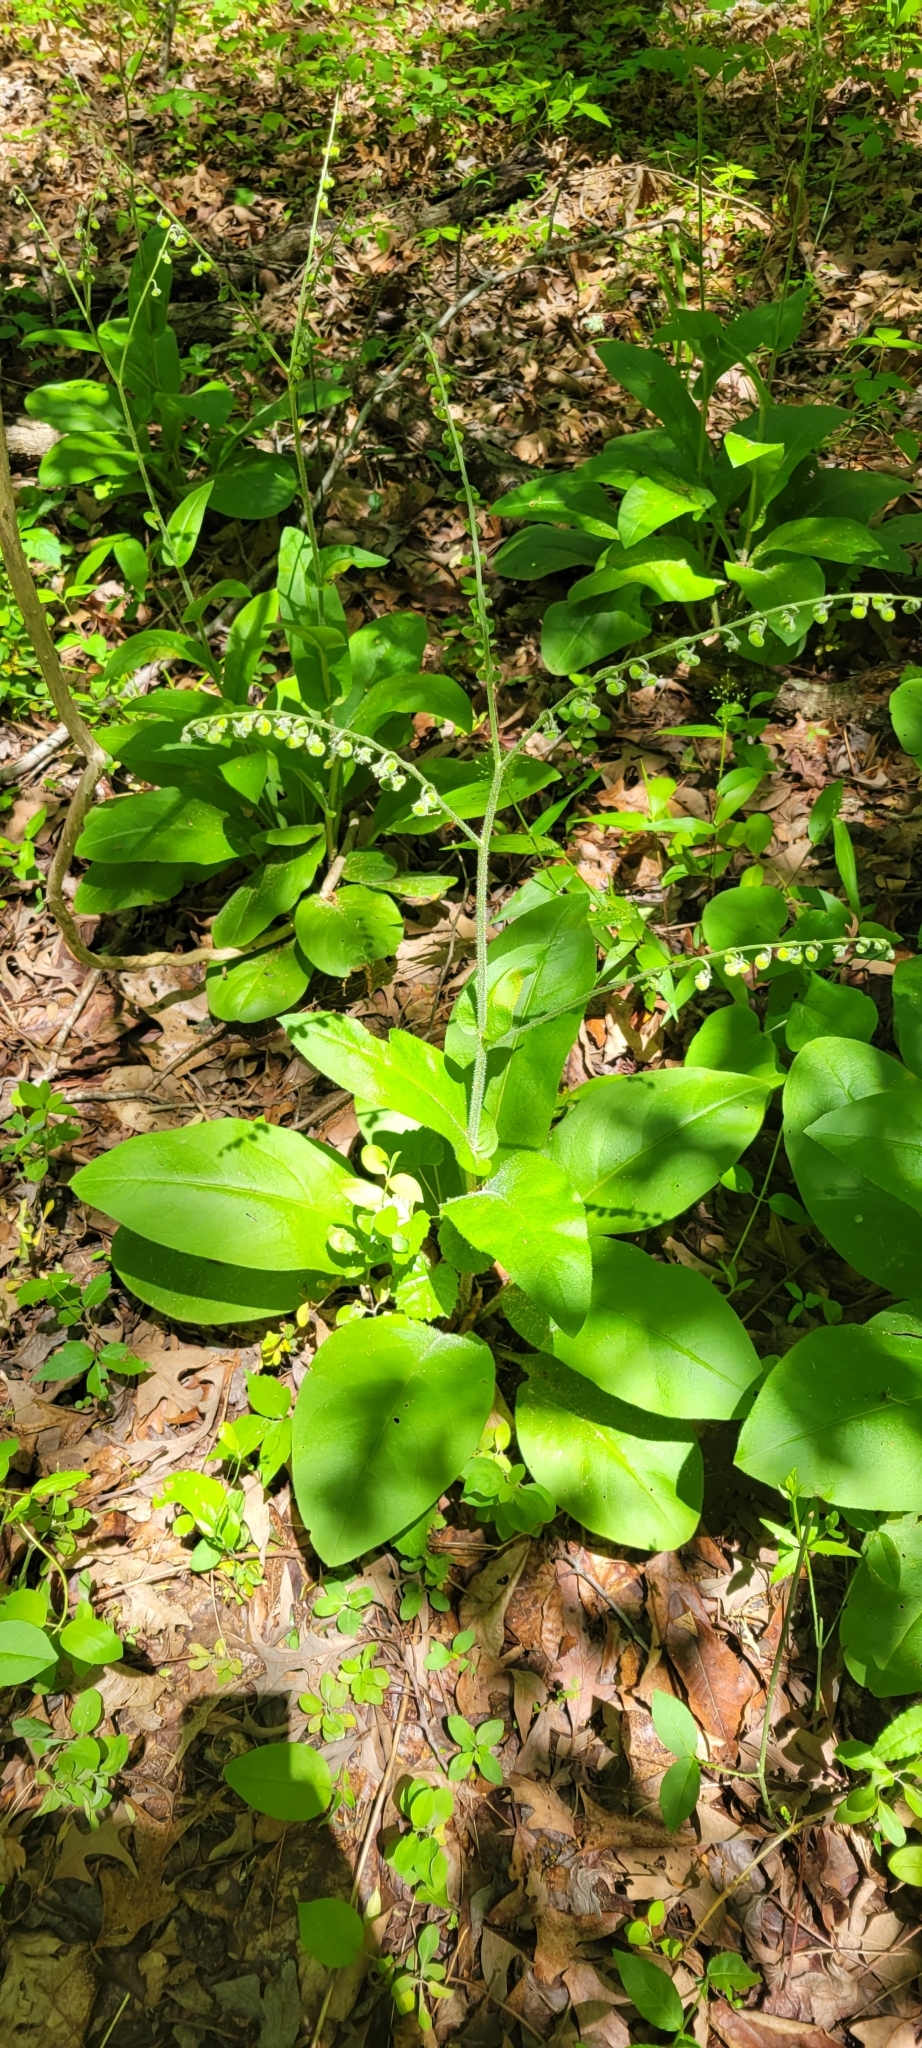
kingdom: Plantae
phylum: Tracheophyta
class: Magnoliopsida
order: Boraginales
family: Boraginaceae
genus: Andersonglossum
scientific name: Andersonglossum virginianum
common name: Wild comfrey
